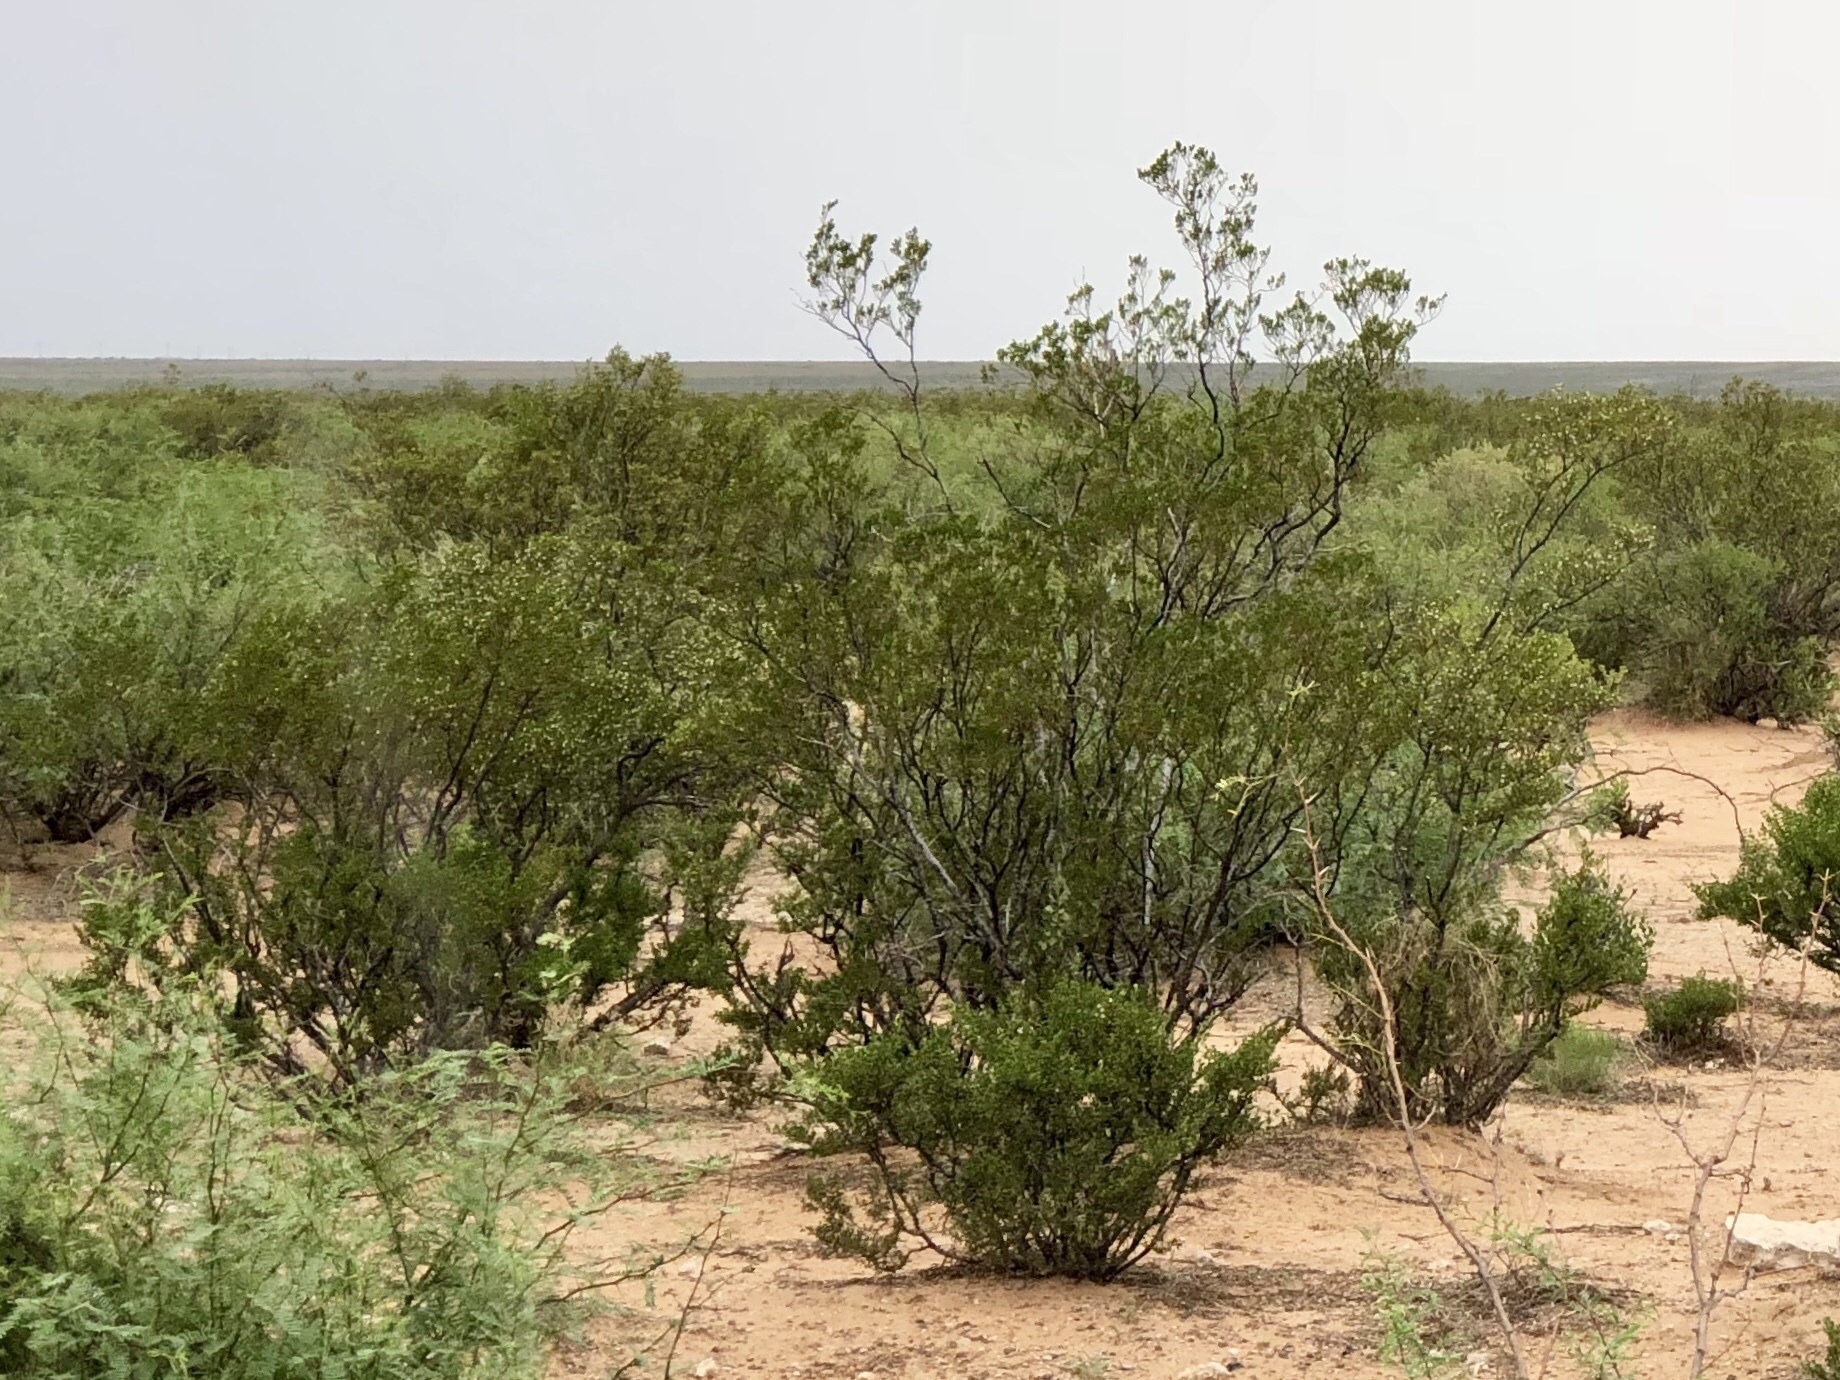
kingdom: Plantae
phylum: Tracheophyta
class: Magnoliopsida
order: Zygophyllales
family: Zygophyllaceae
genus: Larrea
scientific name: Larrea tridentata
